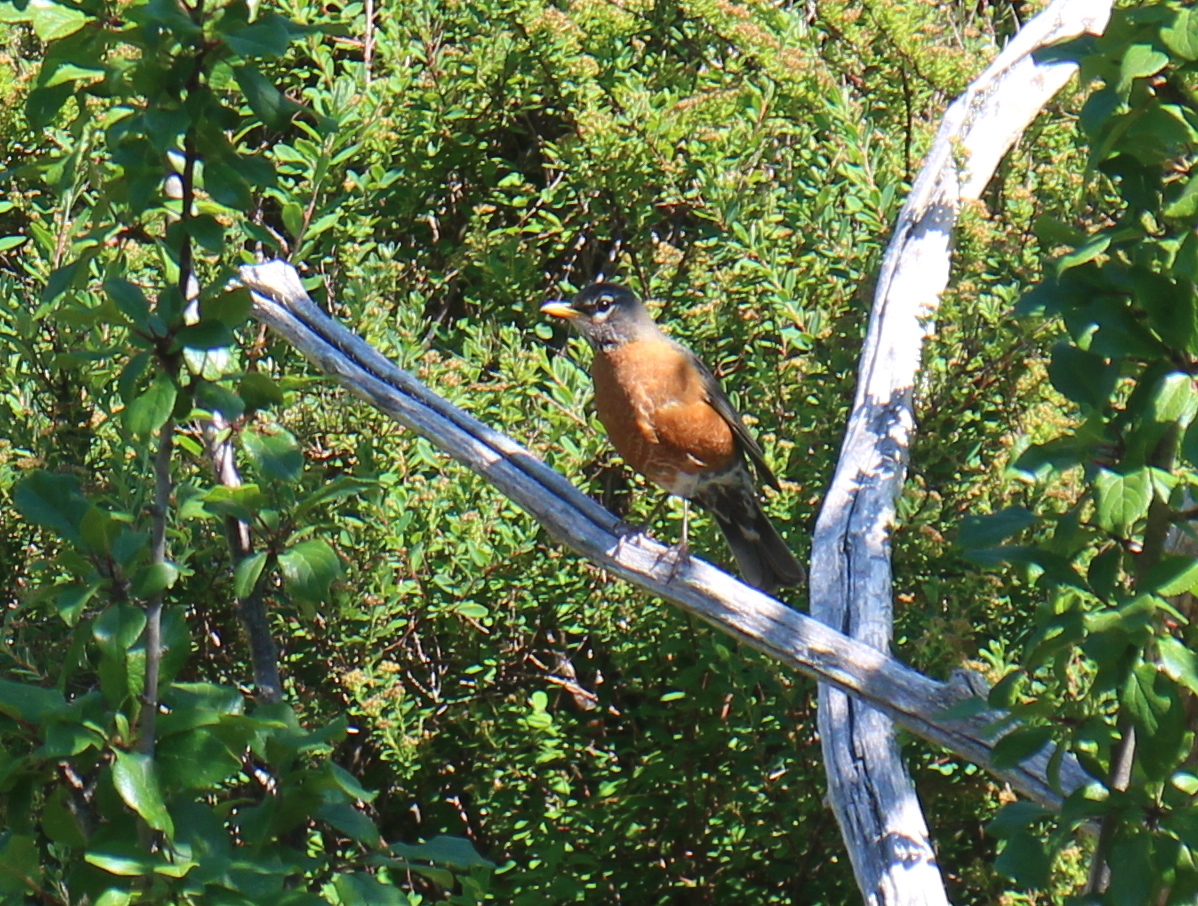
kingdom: Animalia
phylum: Chordata
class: Aves
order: Passeriformes
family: Turdidae
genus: Turdus
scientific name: Turdus migratorius
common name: American robin
